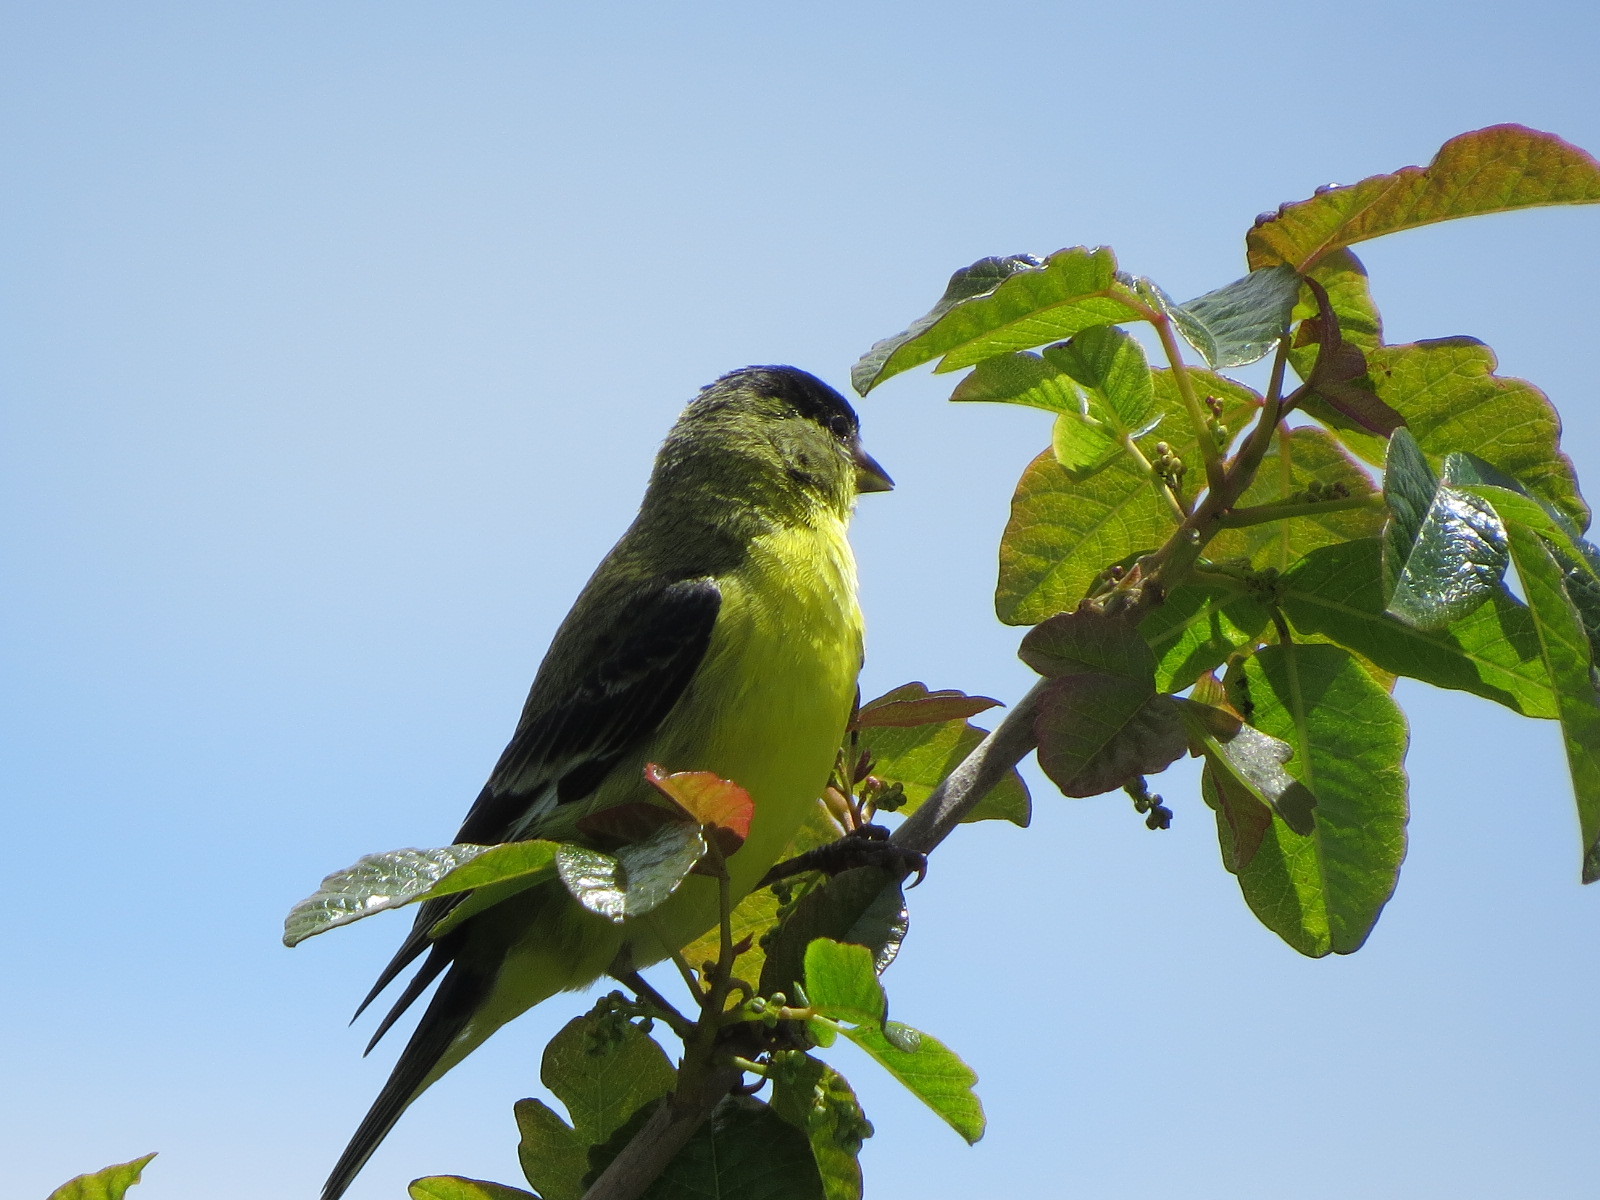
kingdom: Animalia
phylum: Chordata
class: Aves
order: Passeriformes
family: Fringillidae
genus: Spinus
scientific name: Spinus psaltria
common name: Lesser goldfinch
